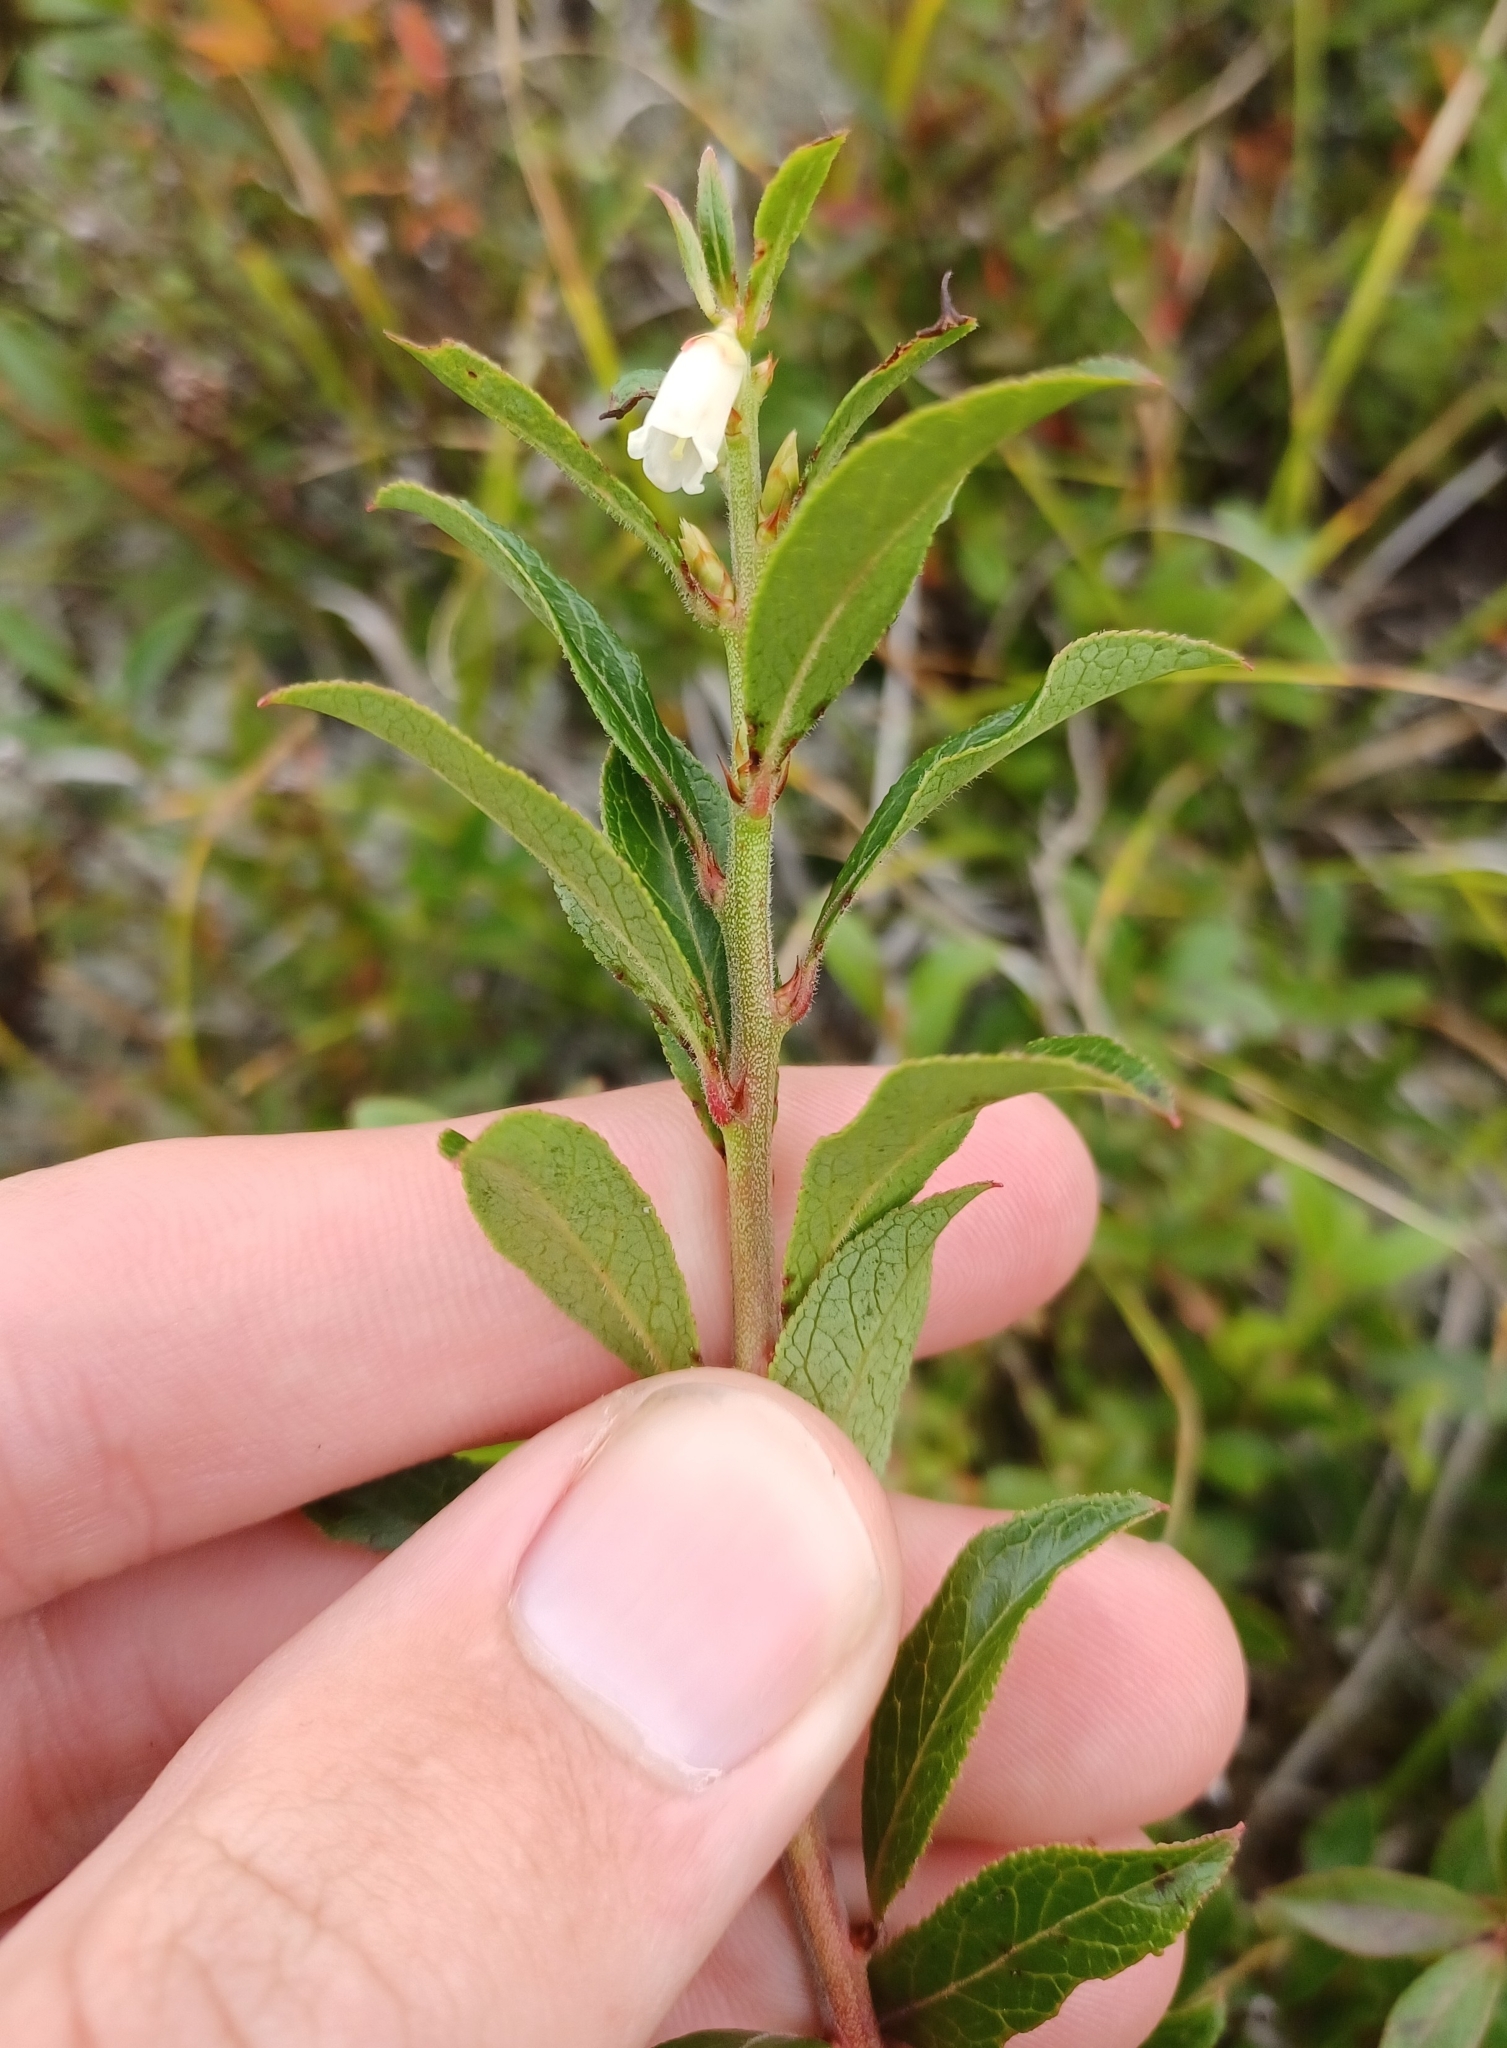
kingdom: Plantae
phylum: Tracheophyta
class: Magnoliopsida
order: Ericales
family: Ericaceae
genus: Vaccinium
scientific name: Vaccinium angustifolium
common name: Early lowbush blueberry
